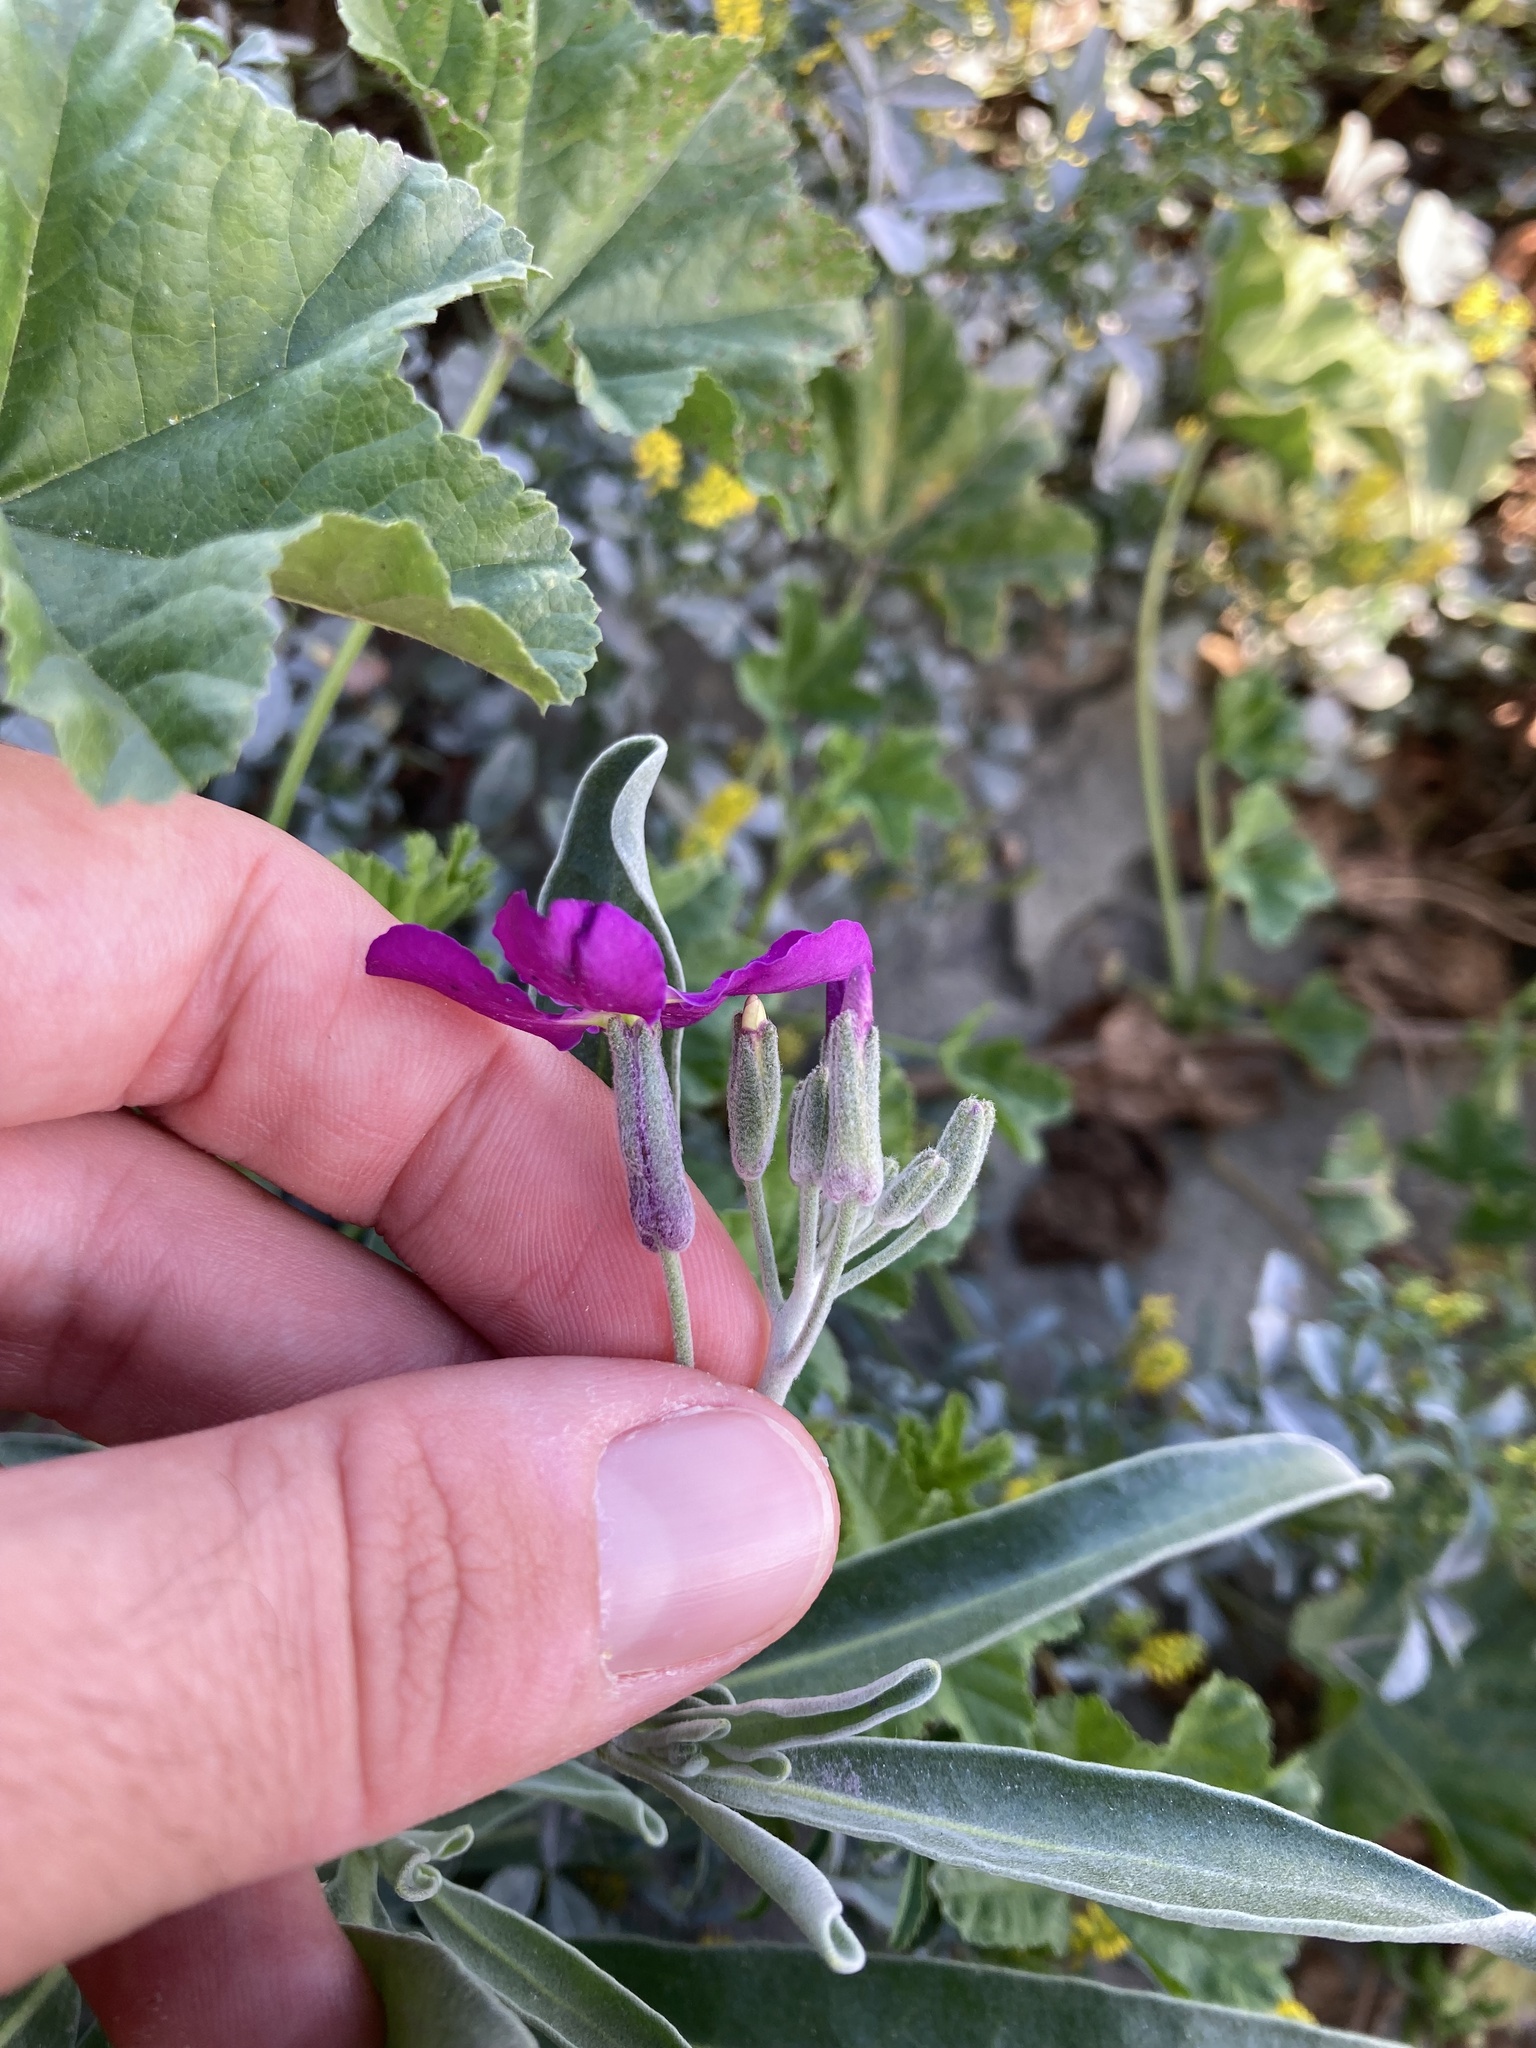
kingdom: Plantae
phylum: Tracheophyta
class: Magnoliopsida
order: Brassicales
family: Brassicaceae
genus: Matthiola
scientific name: Matthiola incana
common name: Hoary stock
